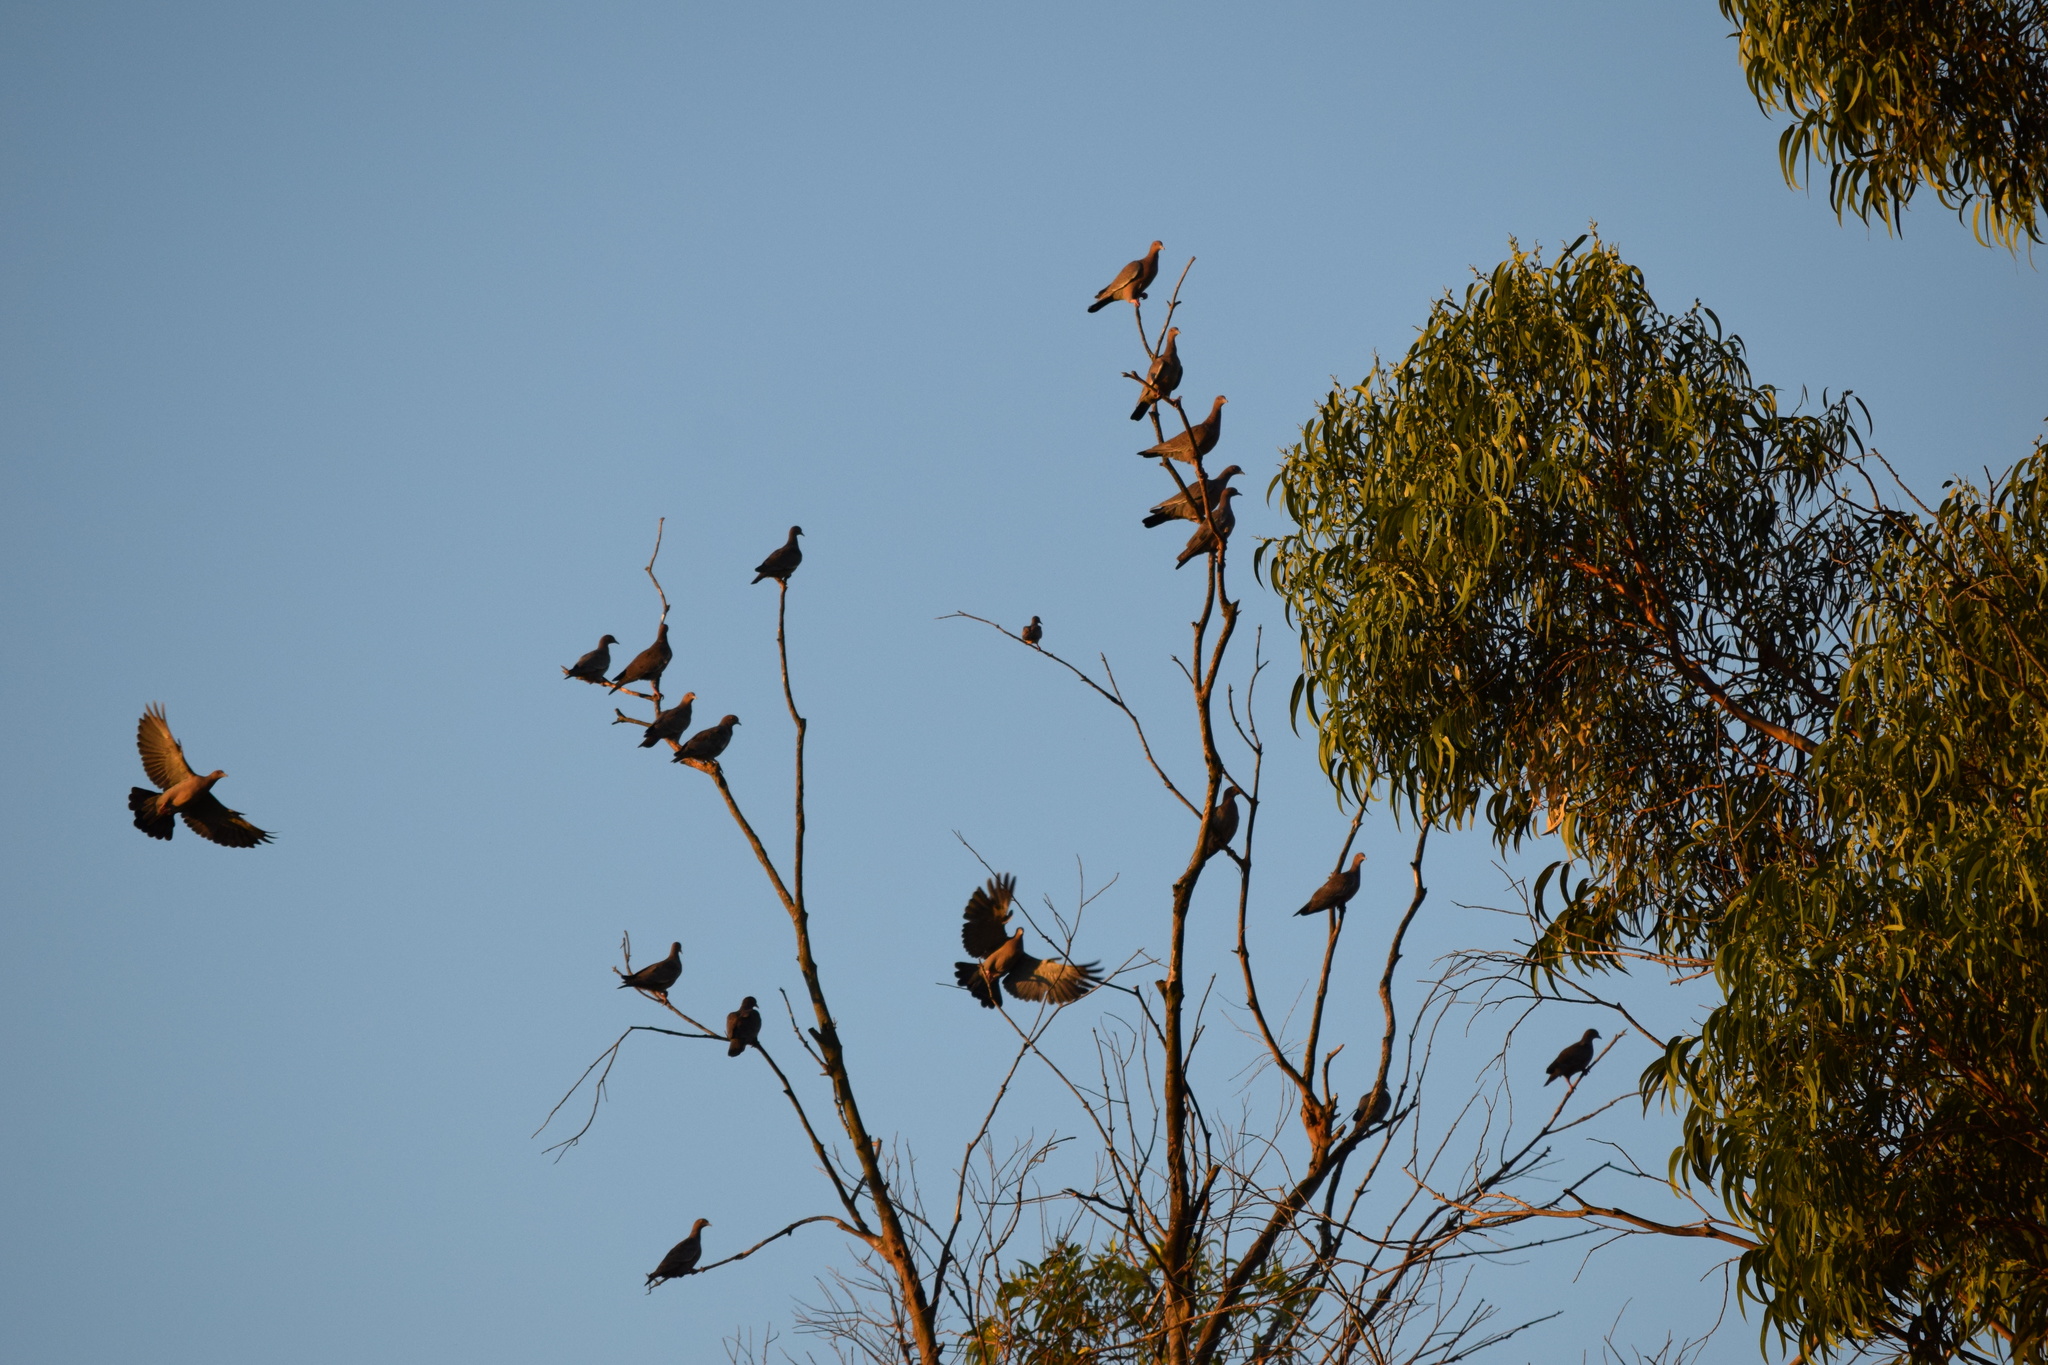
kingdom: Animalia
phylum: Chordata
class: Aves
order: Columbiformes
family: Columbidae
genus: Patagioenas
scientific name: Patagioenas picazuro
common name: Picazuro pigeon
